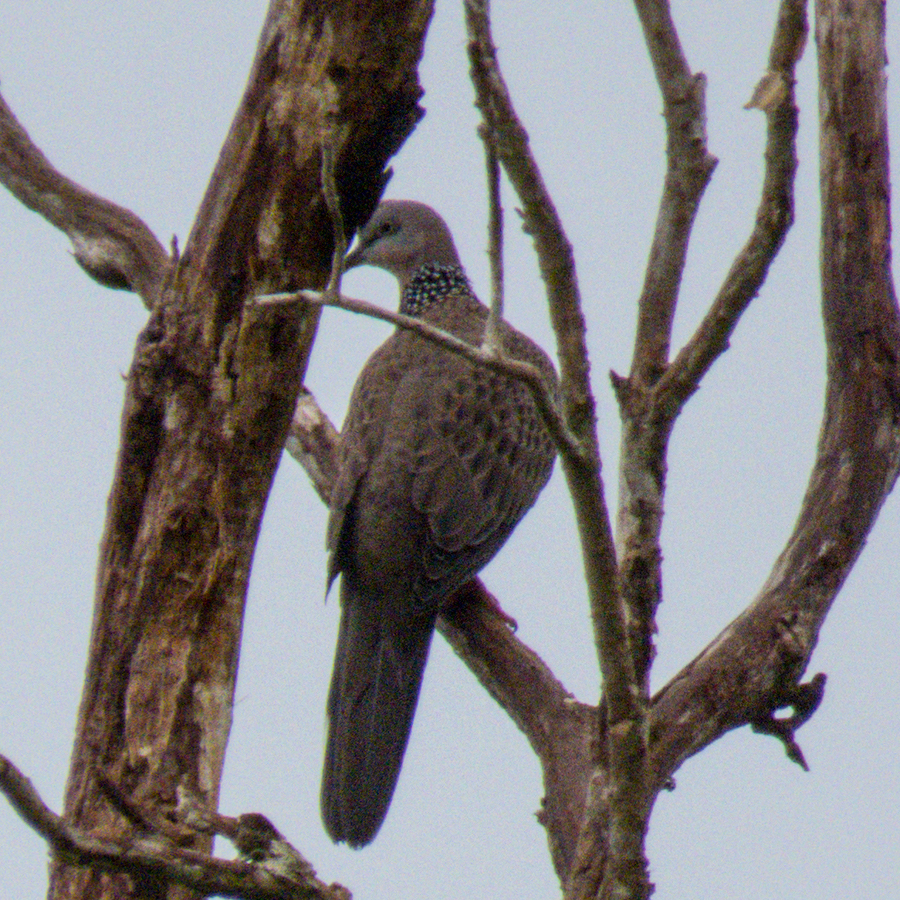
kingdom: Animalia
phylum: Chordata
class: Aves
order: Columbiformes
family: Columbidae
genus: Spilopelia
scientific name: Spilopelia chinensis
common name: Spotted dove
